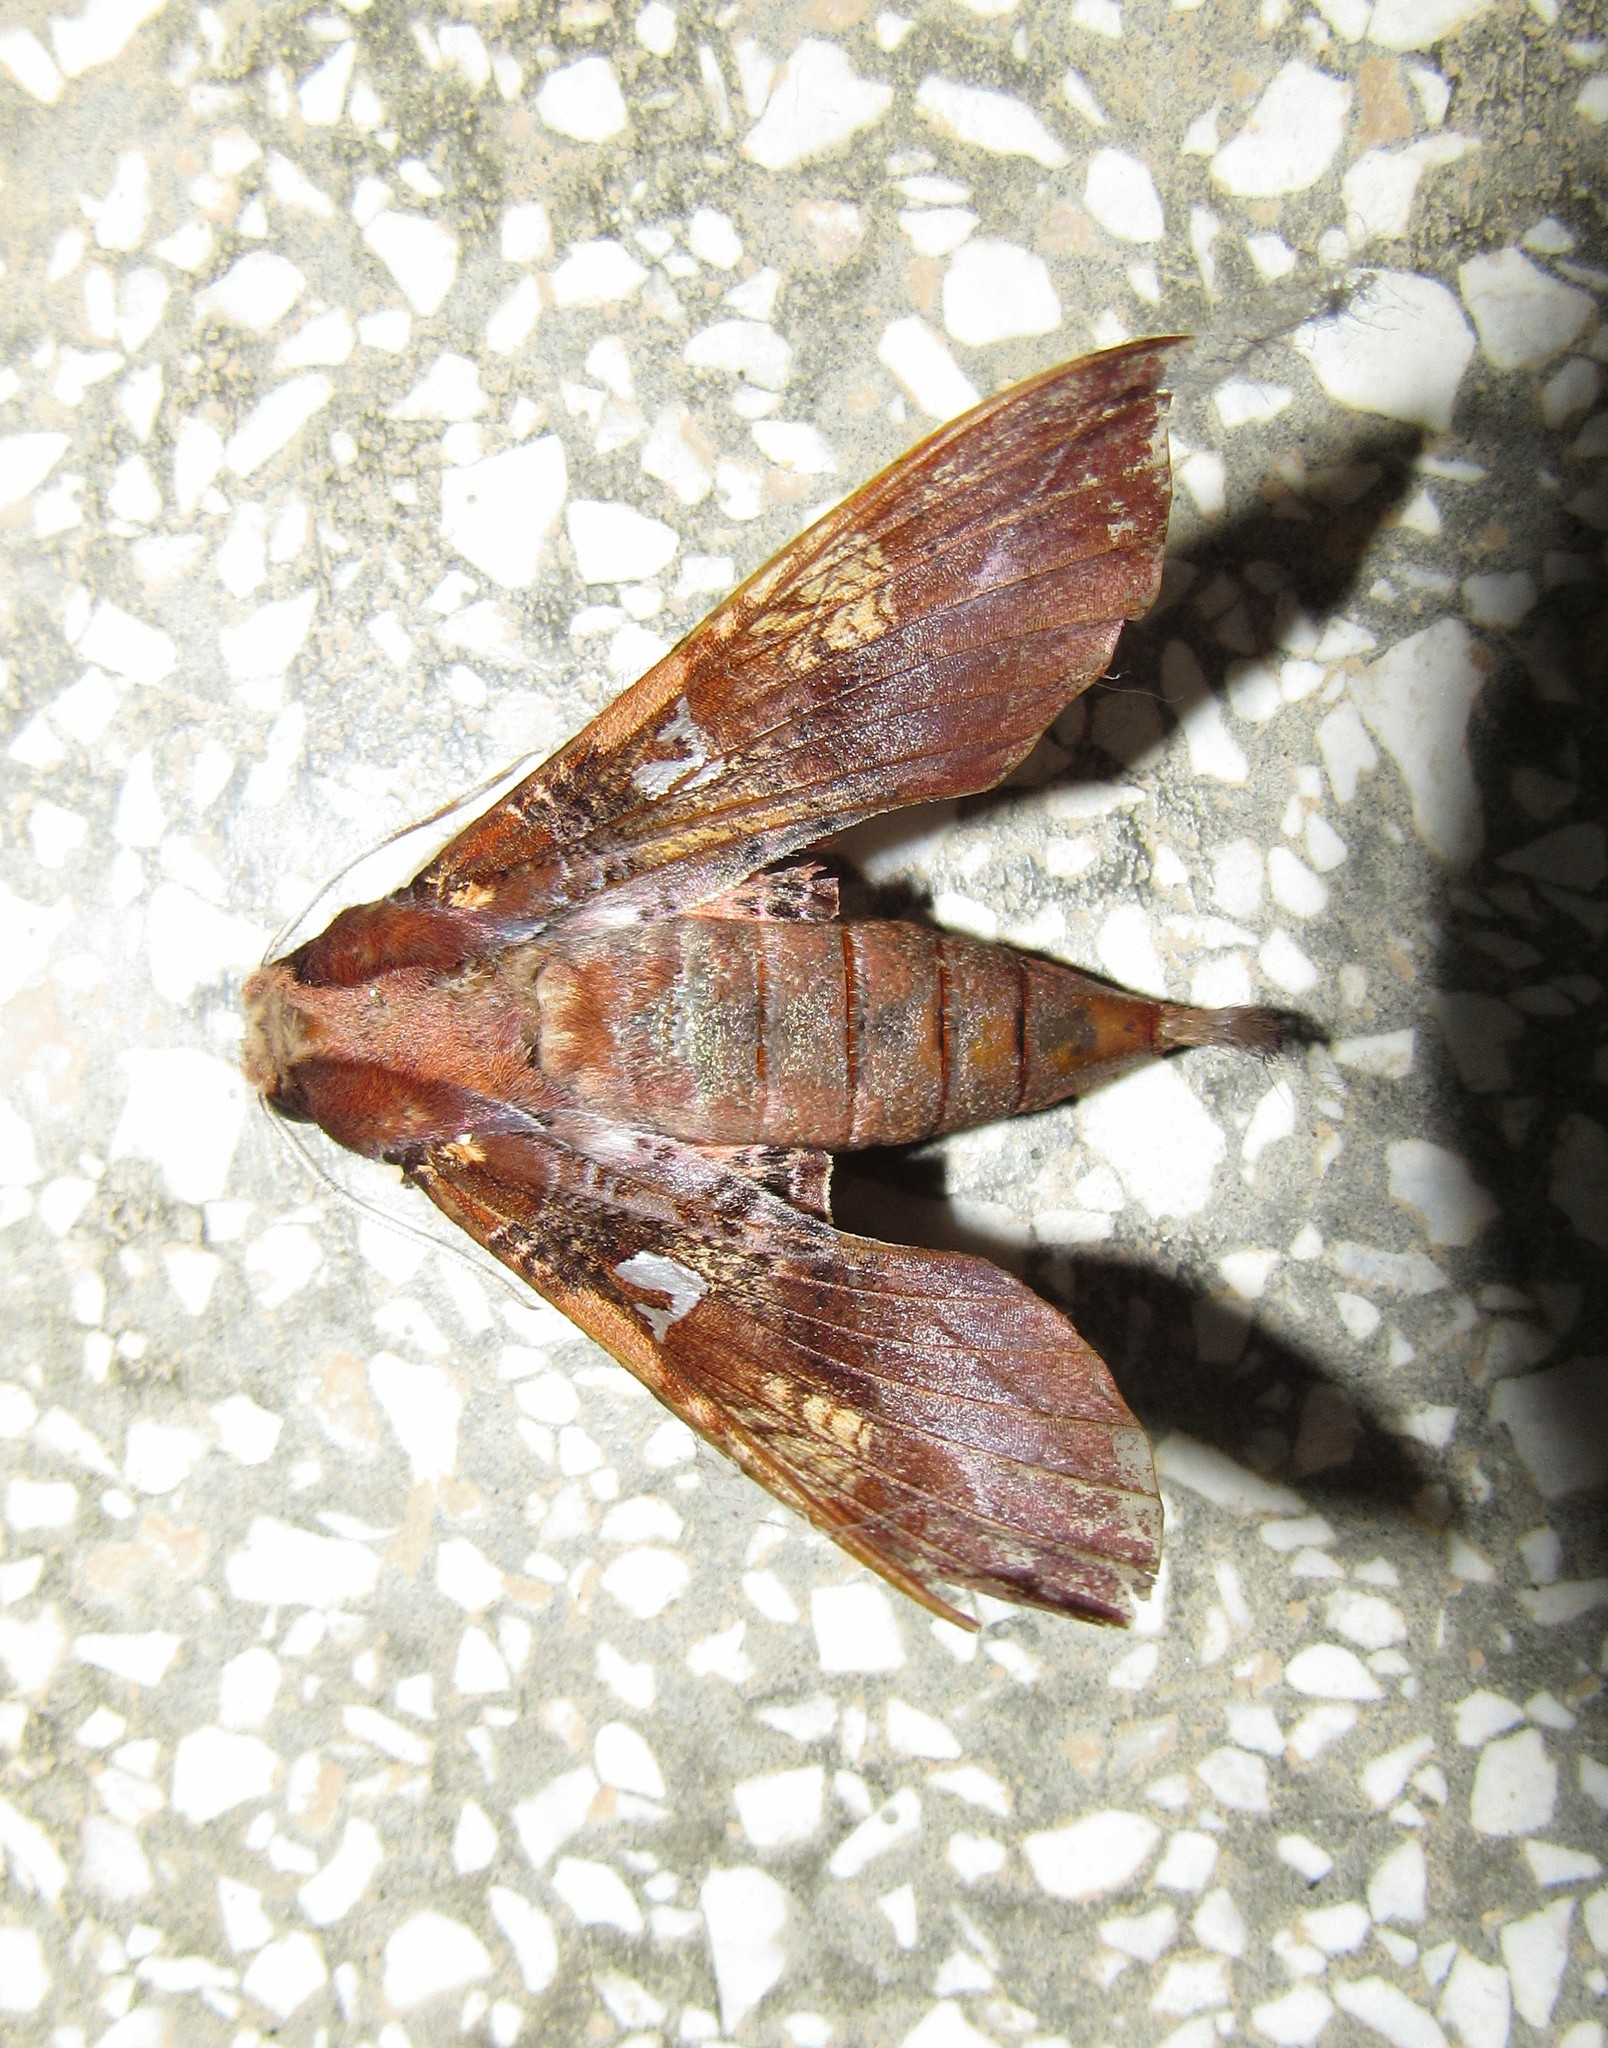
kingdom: Animalia
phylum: Arthropoda
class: Insecta
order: Lepidoptera
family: Sphingidae
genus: Callionima
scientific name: Callionima inuus
